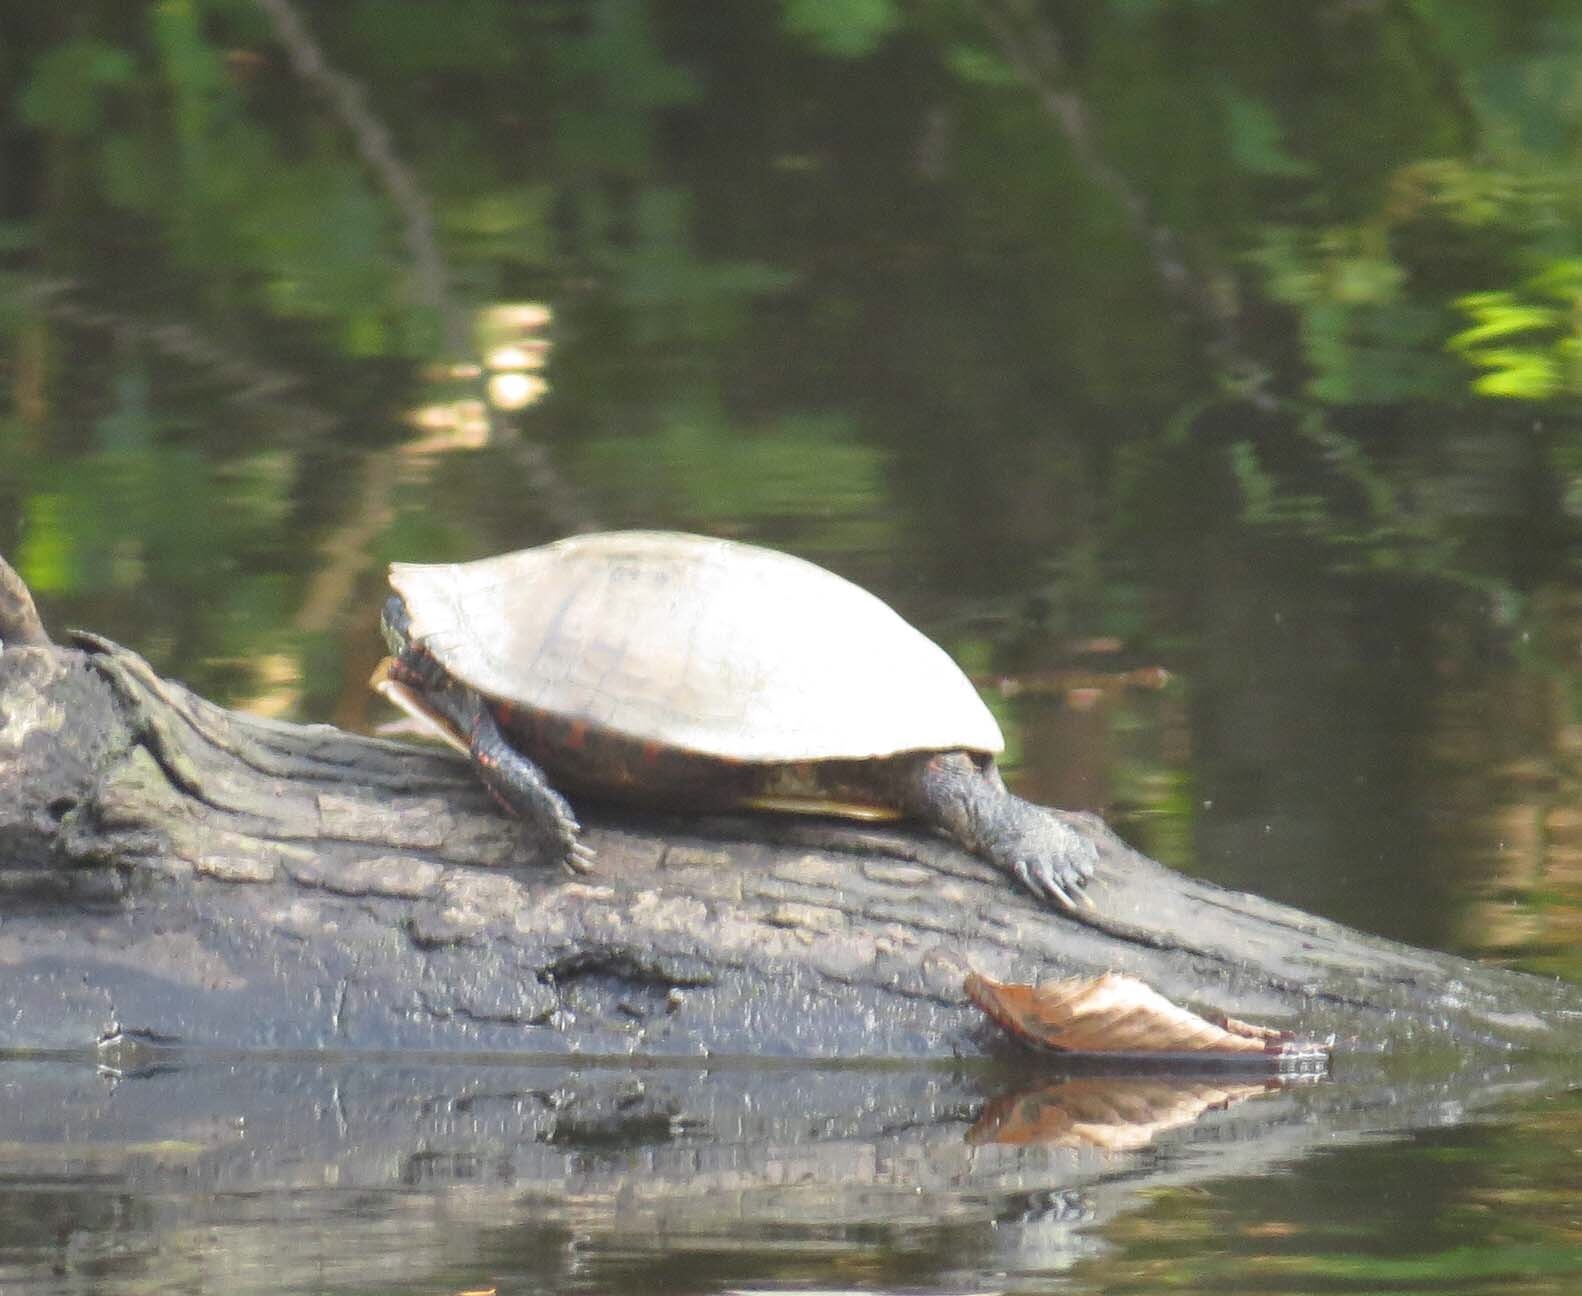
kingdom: Animalia
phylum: Chordata
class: Testudines
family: Emydidae
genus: Chrysemys
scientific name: Chrysemys picta
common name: Painted turtle
